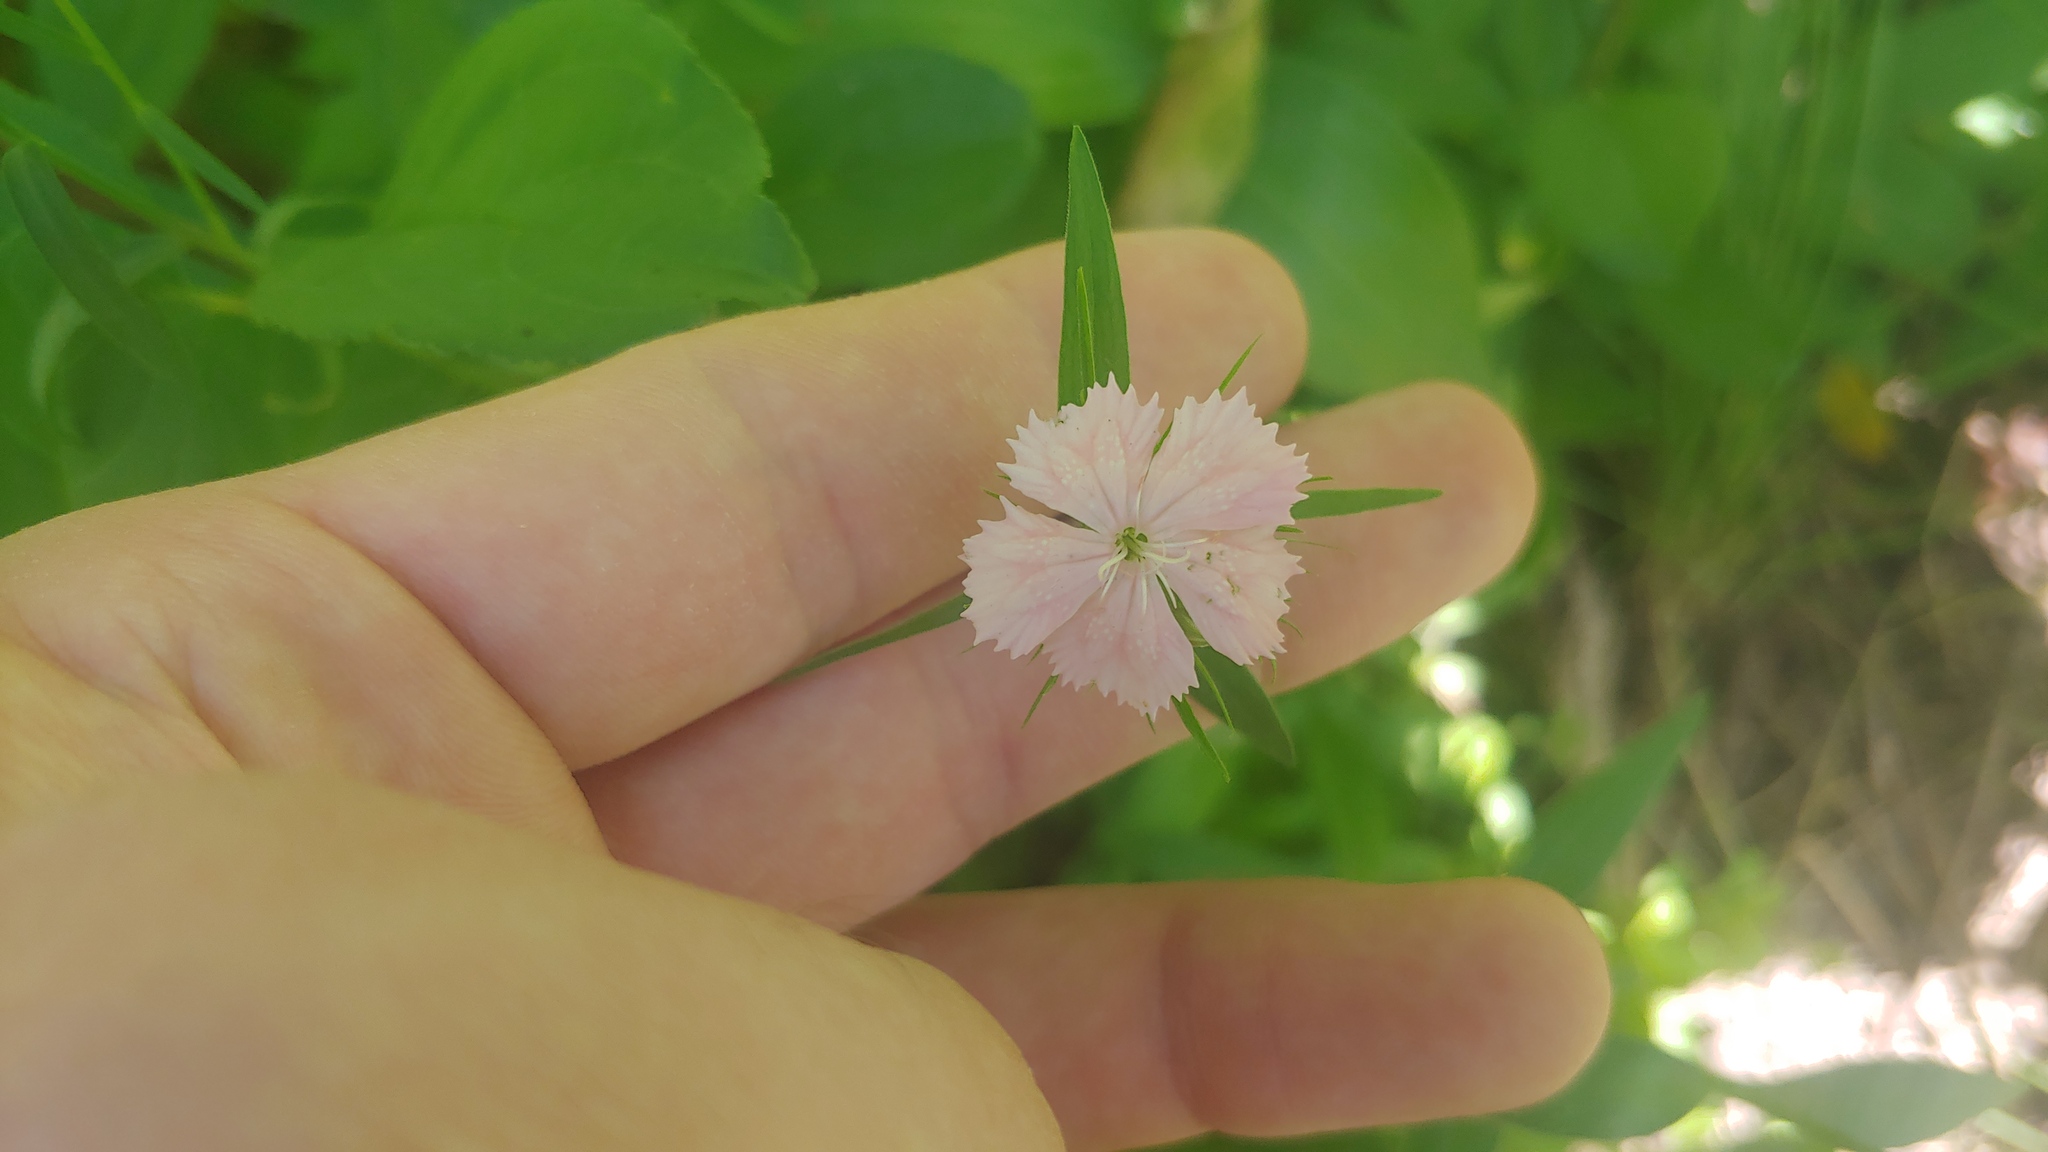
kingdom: Plantae
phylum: Tracheophyta
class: Magnoliopsida
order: Caryophyllales
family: Caryophyllaceae
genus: Dianthus
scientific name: Dianthus barbatus
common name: Sweet-william
